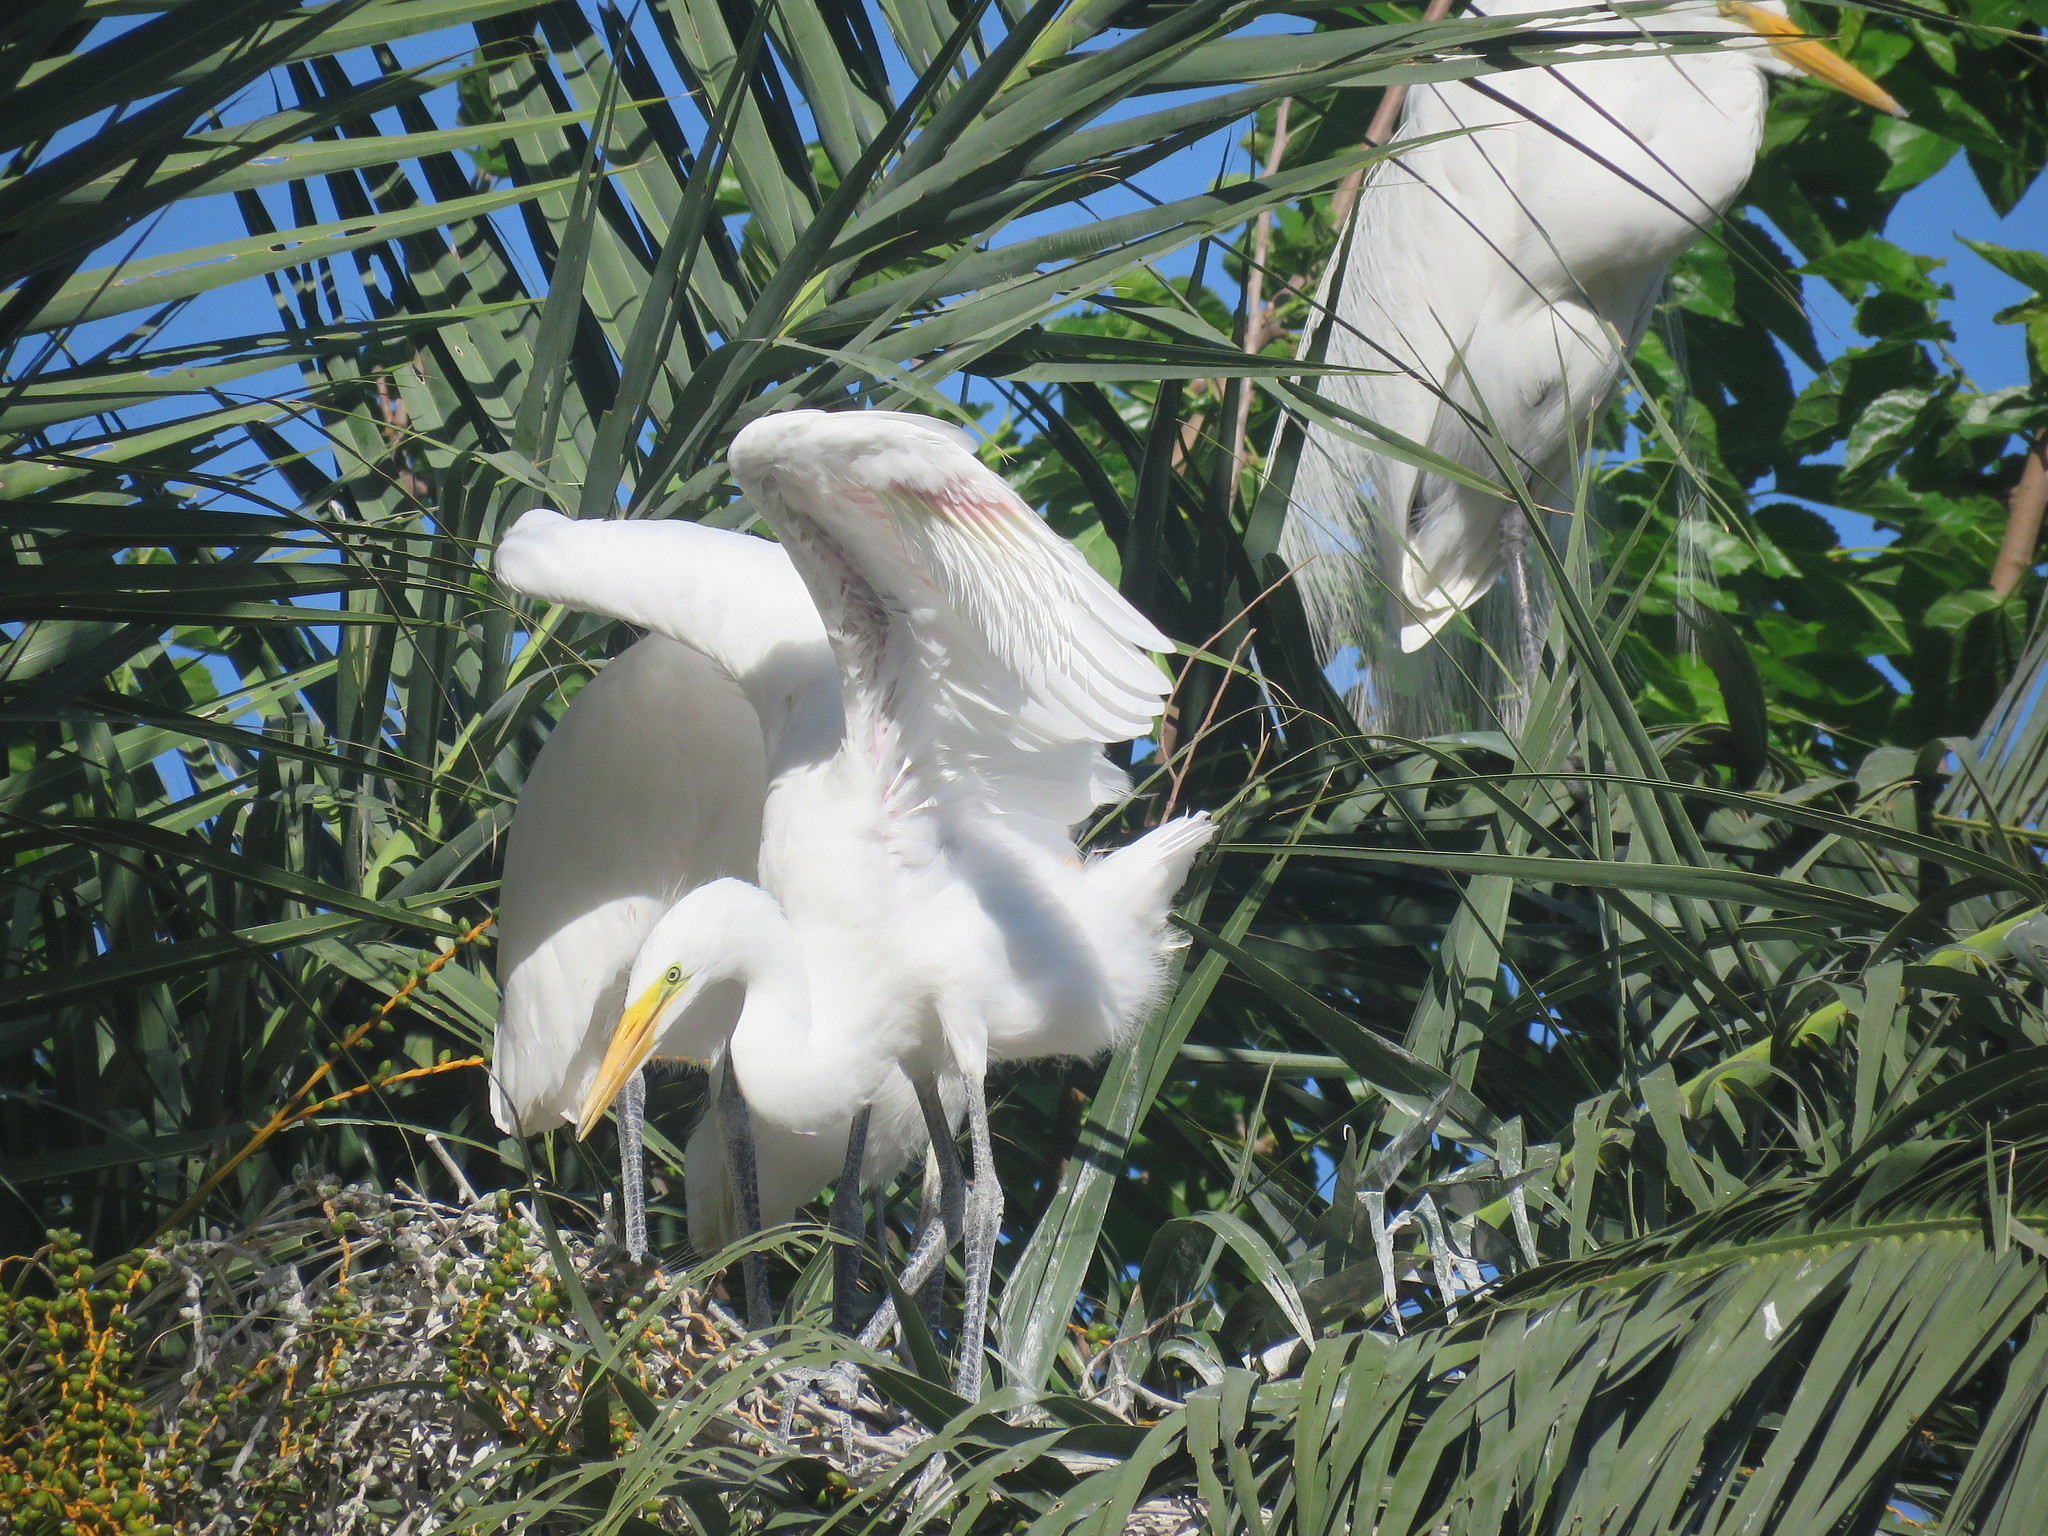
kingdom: Animalia
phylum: Chordata
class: Aves
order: Pelecaniformes
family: Ardeidae
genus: Ardea
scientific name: Ardea alba
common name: Great egret
